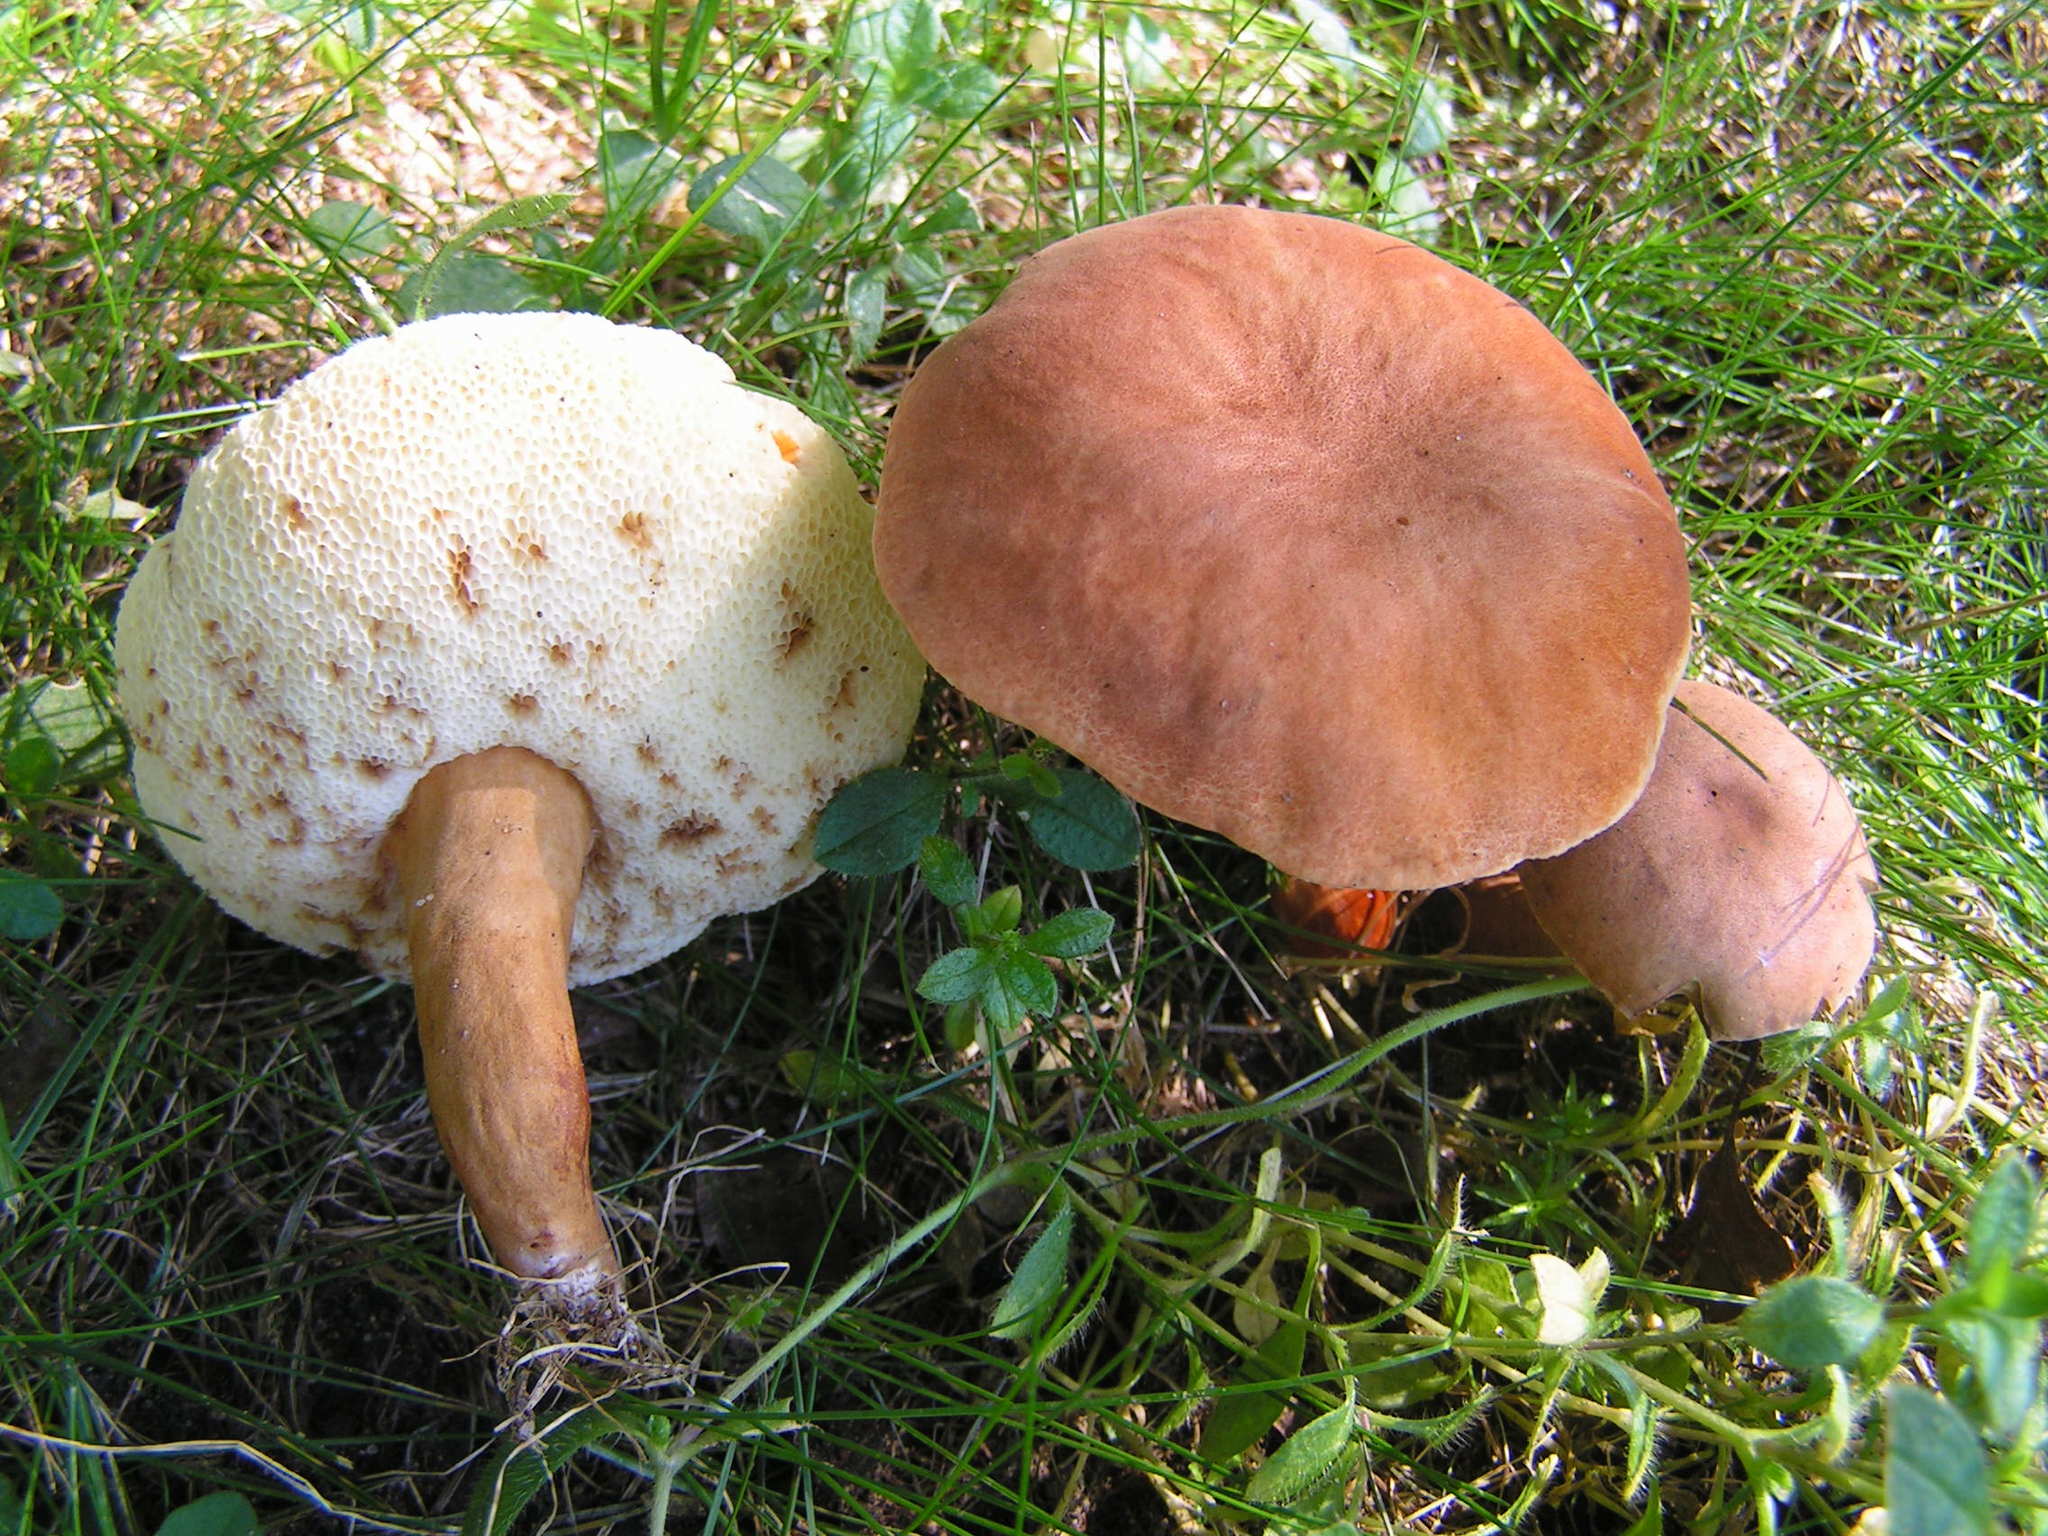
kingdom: Fungi
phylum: Basidiomycota
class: Agaricomycetes
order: Boletales
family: Gyroporaceae
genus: Gyroporus
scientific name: Gyroporus castaneus
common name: Chestnut bolete
